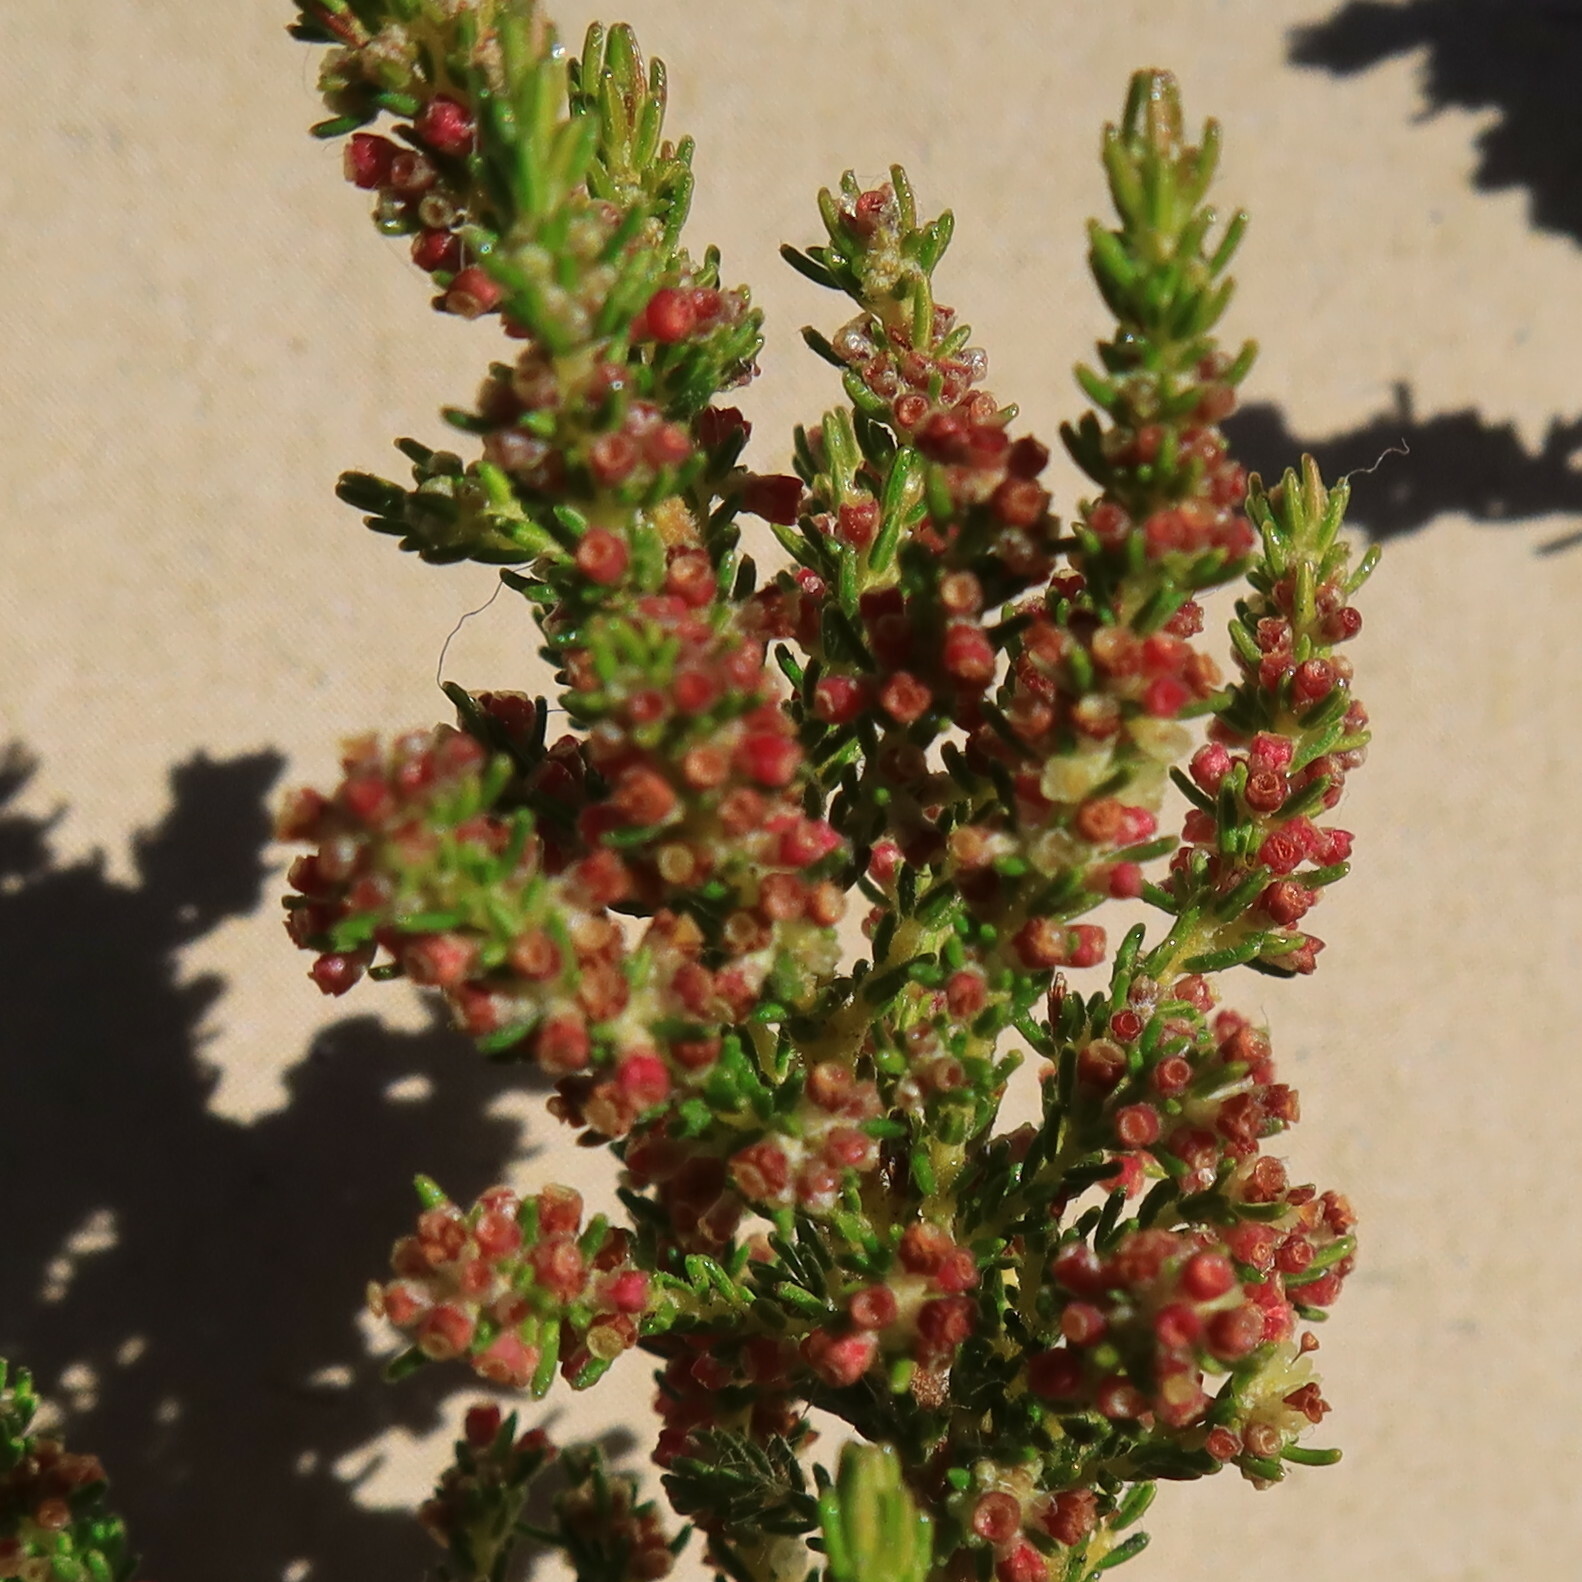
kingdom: Plantae
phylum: Tracheophyta
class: Magnoliopsida
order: Ericales
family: Ericaceae
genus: Erica
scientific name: Erica muscosa
